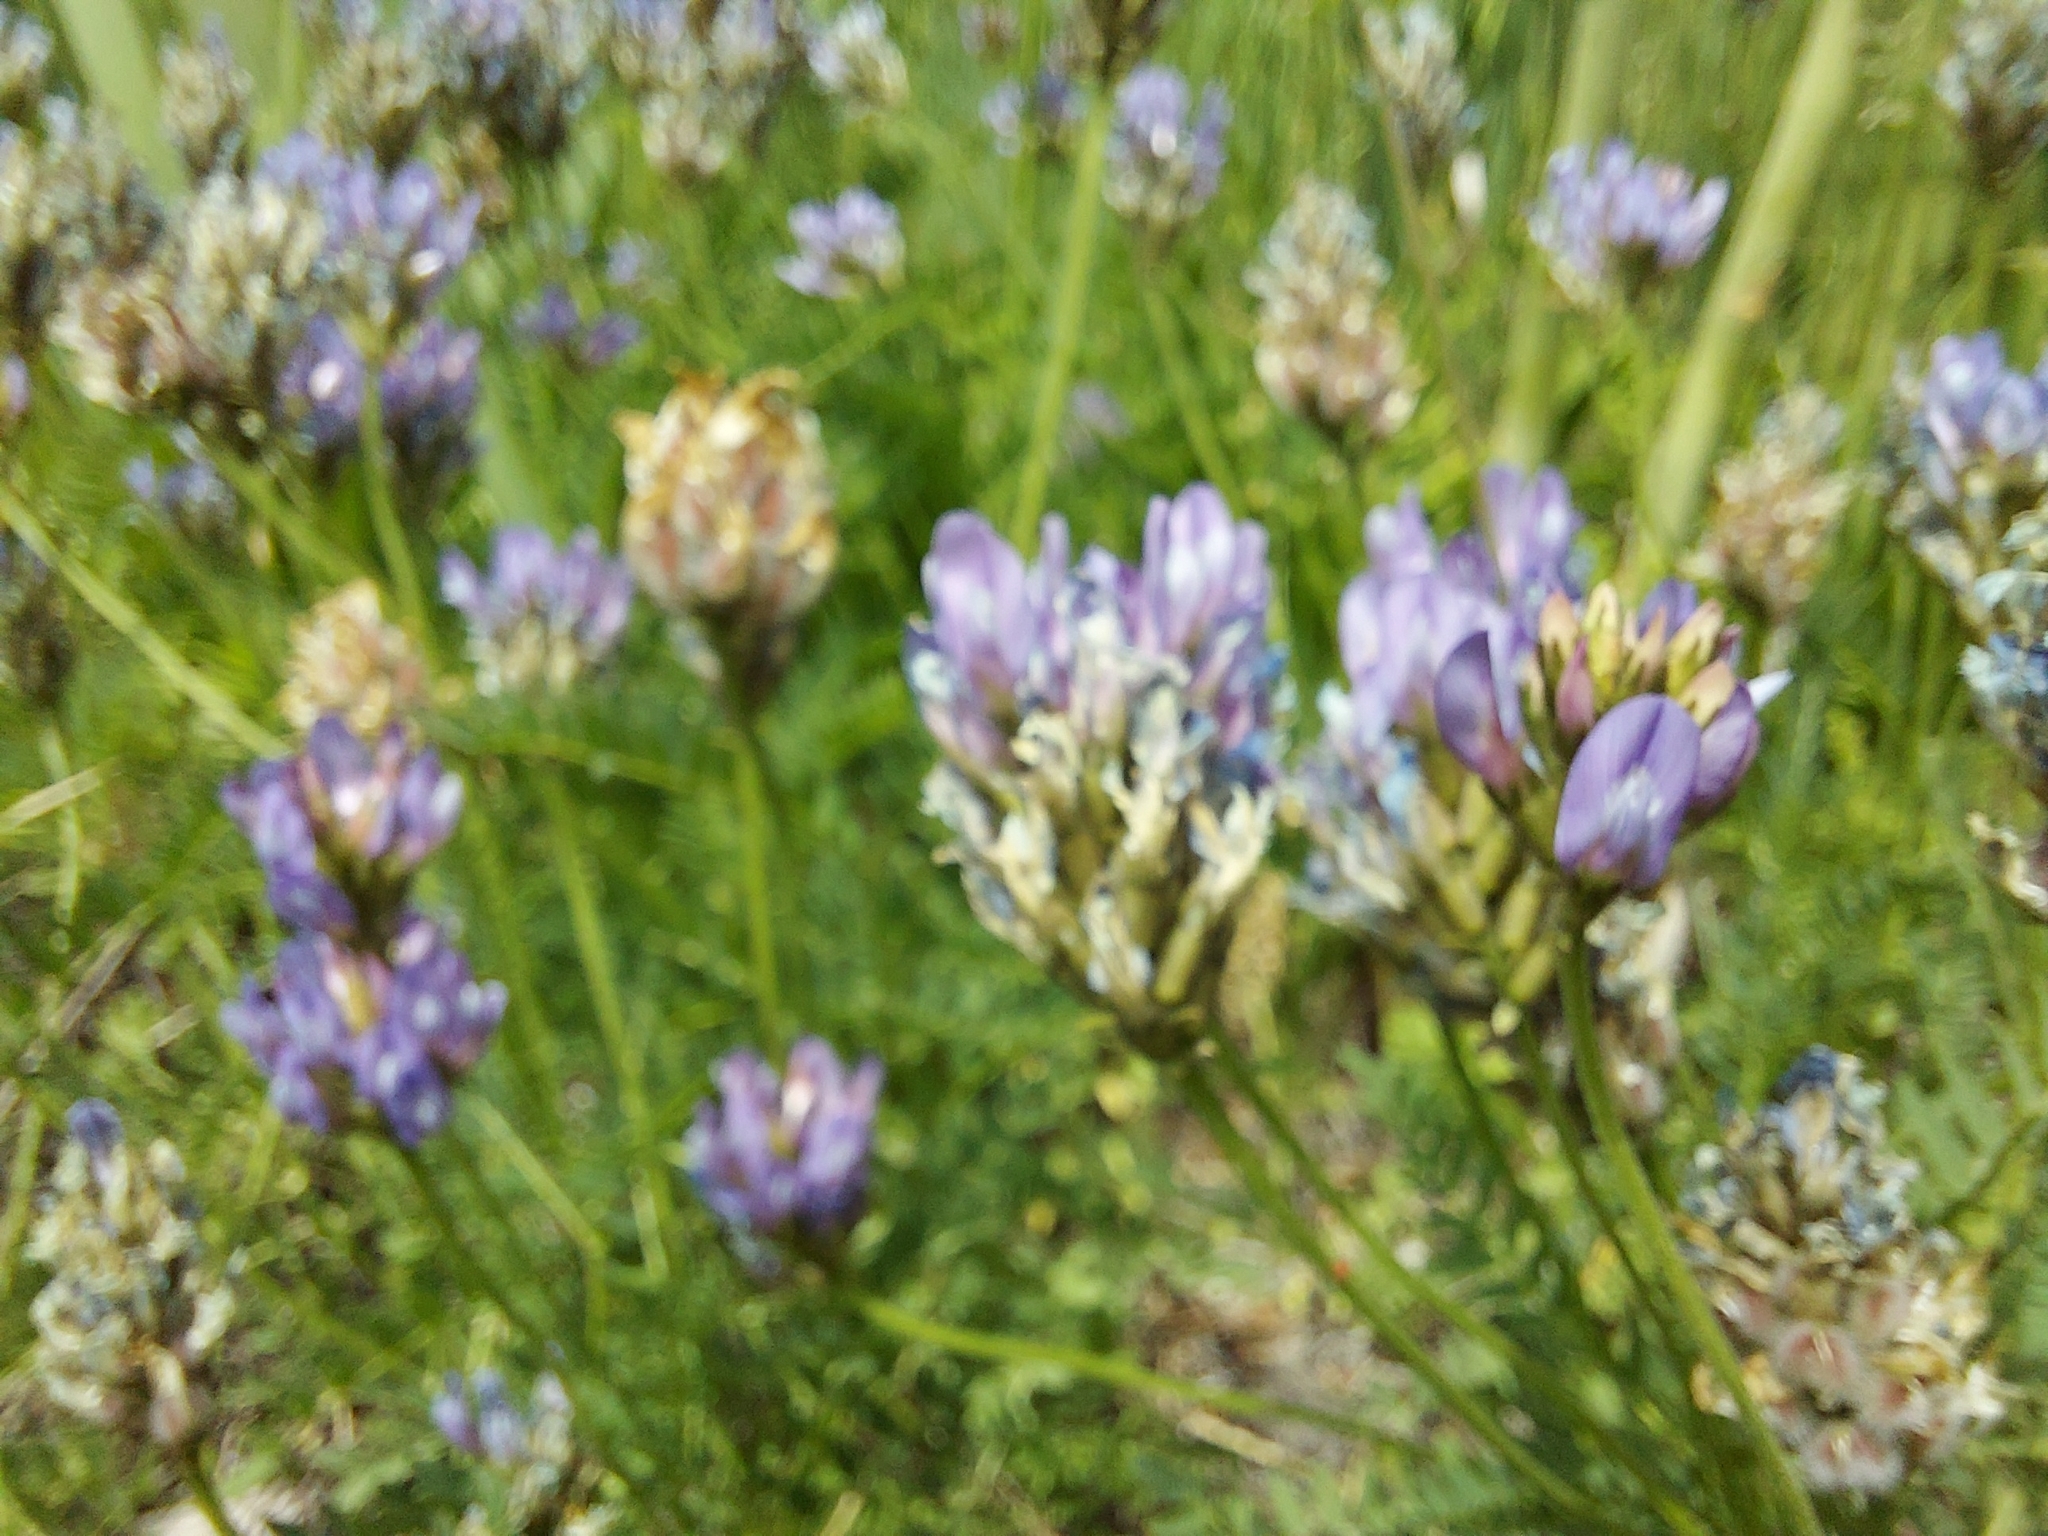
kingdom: Plantae
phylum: Tracheophyta
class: Magnoliopsida
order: Fabales
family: Fabaceae
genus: Astragalus
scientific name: Astragalus danicus
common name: Purple milk-vetch
